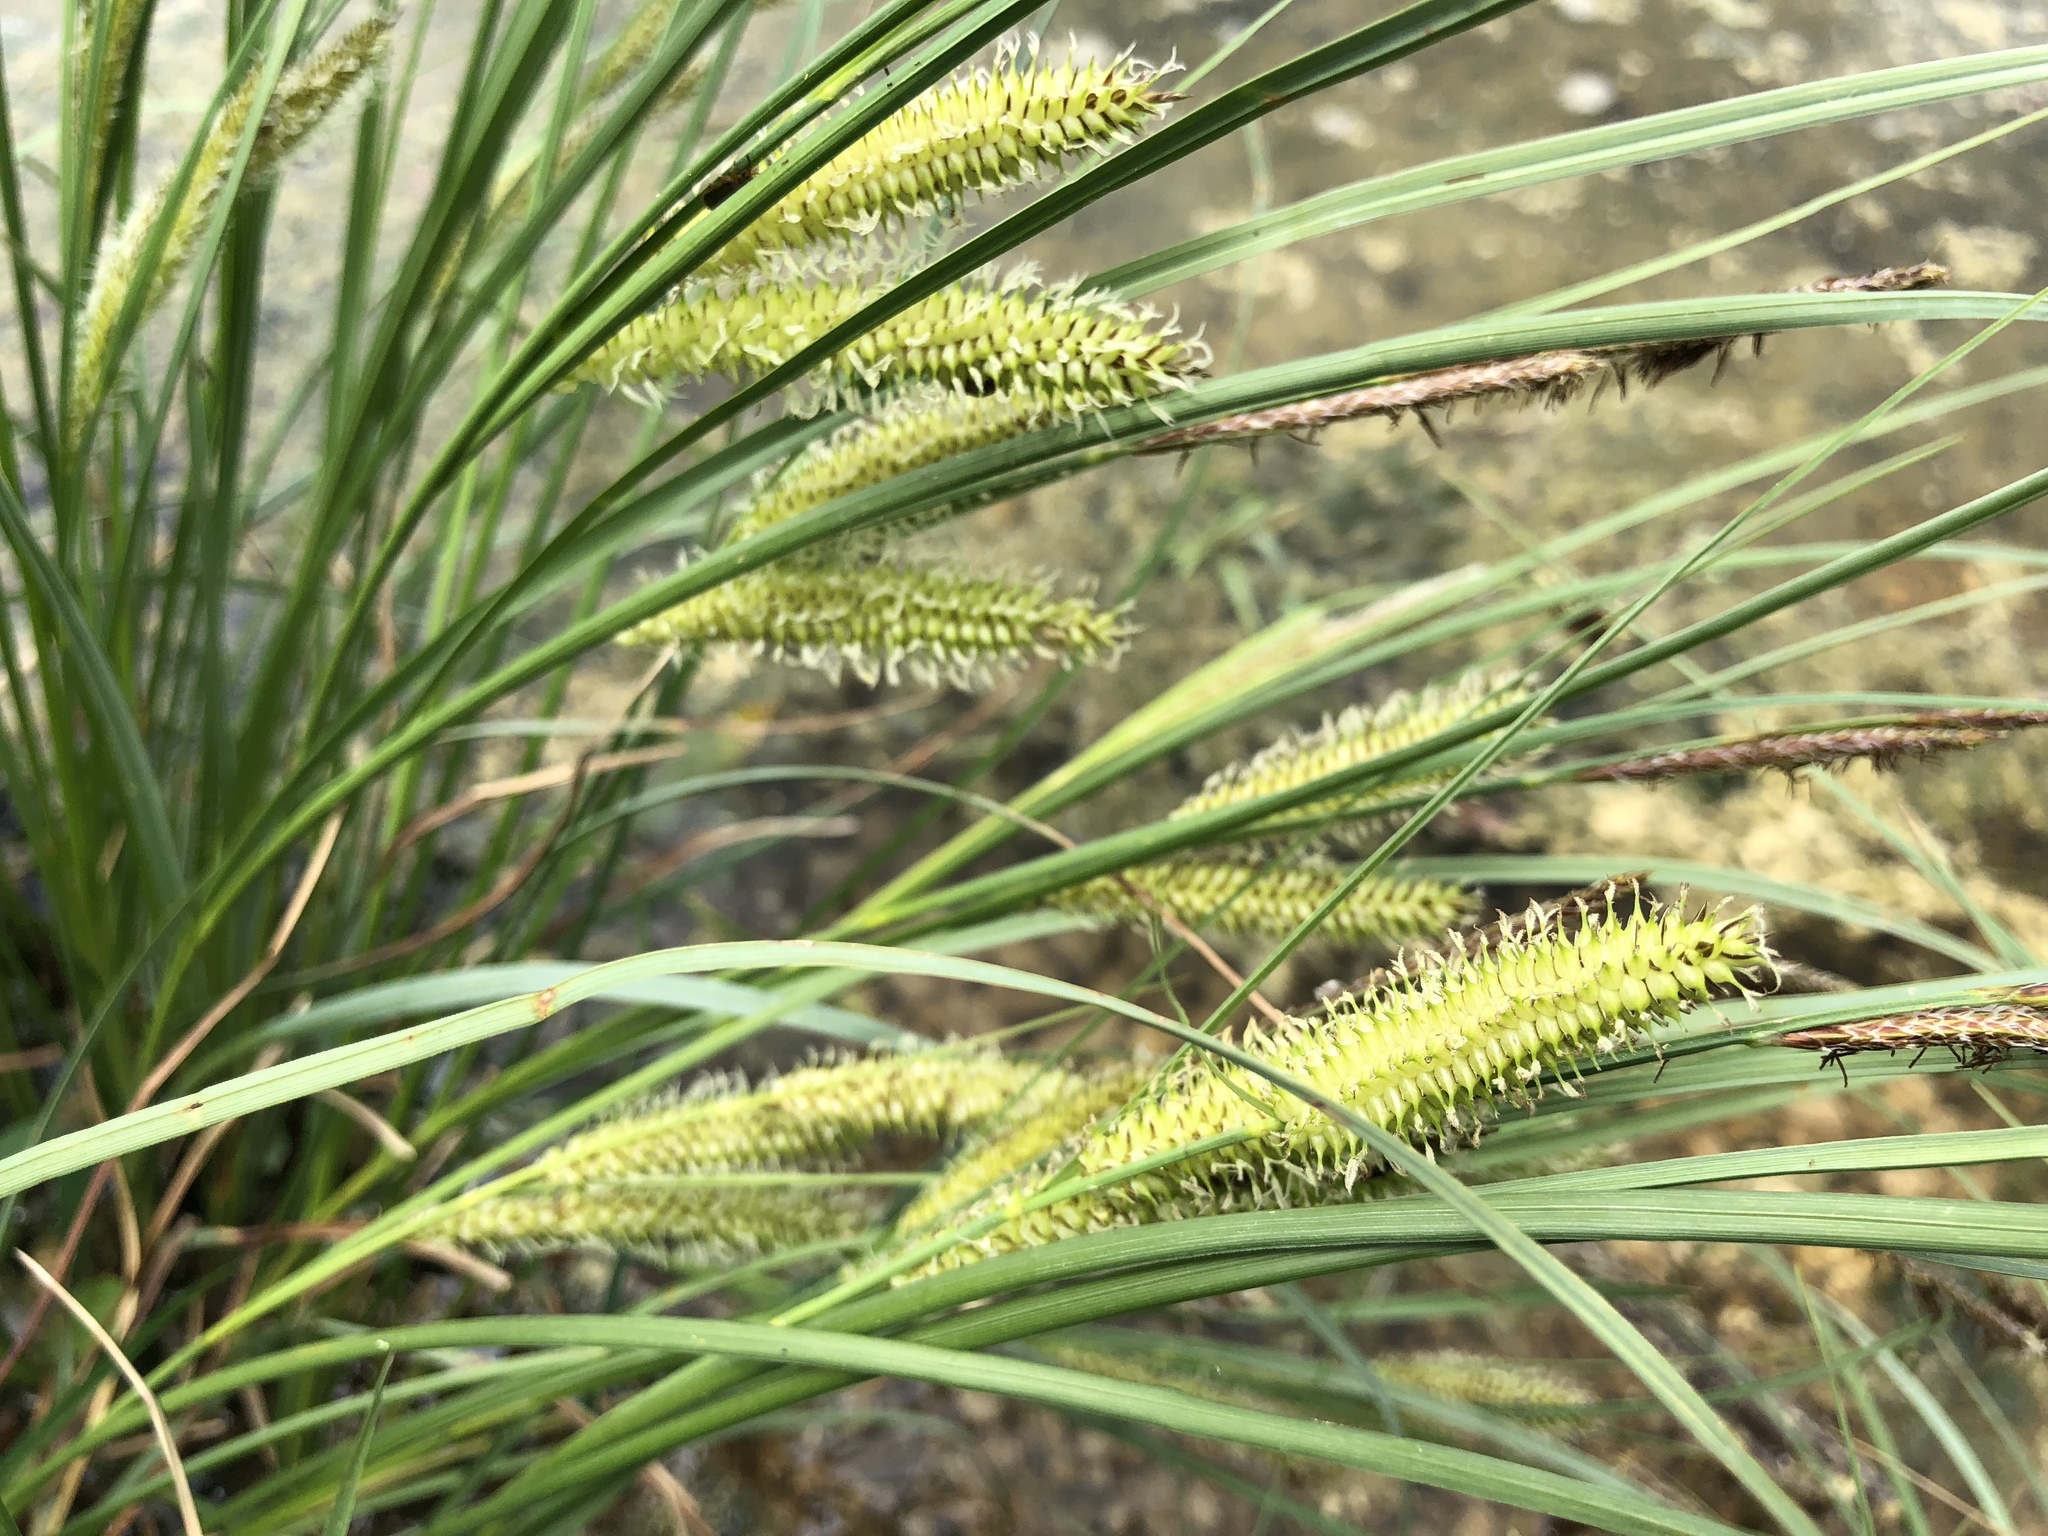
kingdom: Plantae
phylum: Tracheophyta
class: Liliopsida
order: Poales
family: Cyperaceae
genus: Carex
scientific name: Carex rostrata
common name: Bottle sedge
